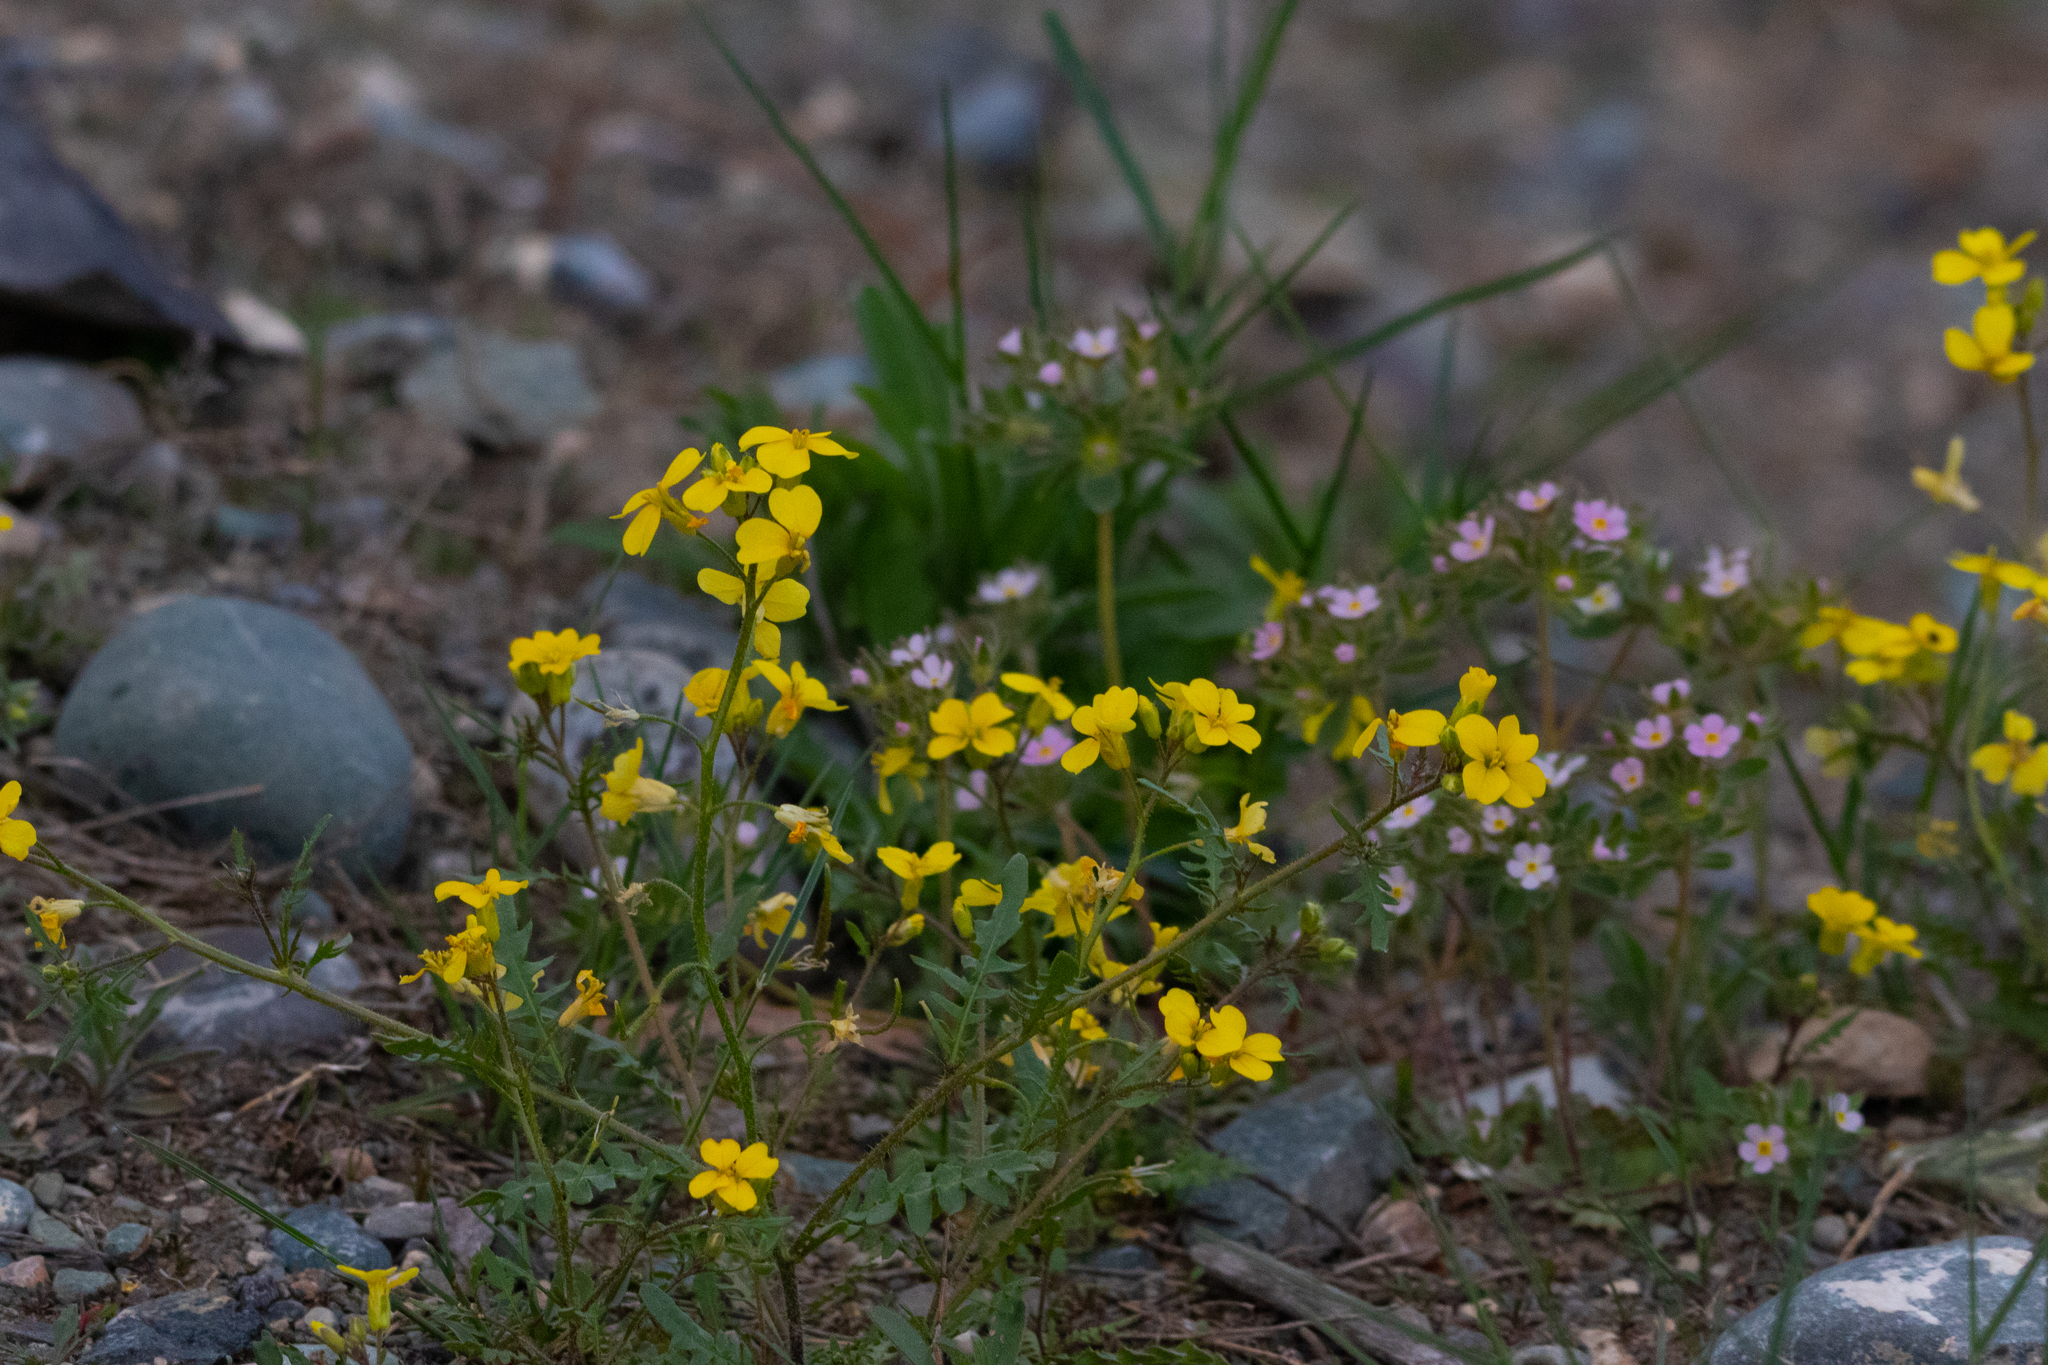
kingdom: Plantae
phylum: Tracheophyta
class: Magnoliopsida
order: Brassicales
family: Brassicaceae
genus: Chorispora
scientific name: Chorispora sibirica
